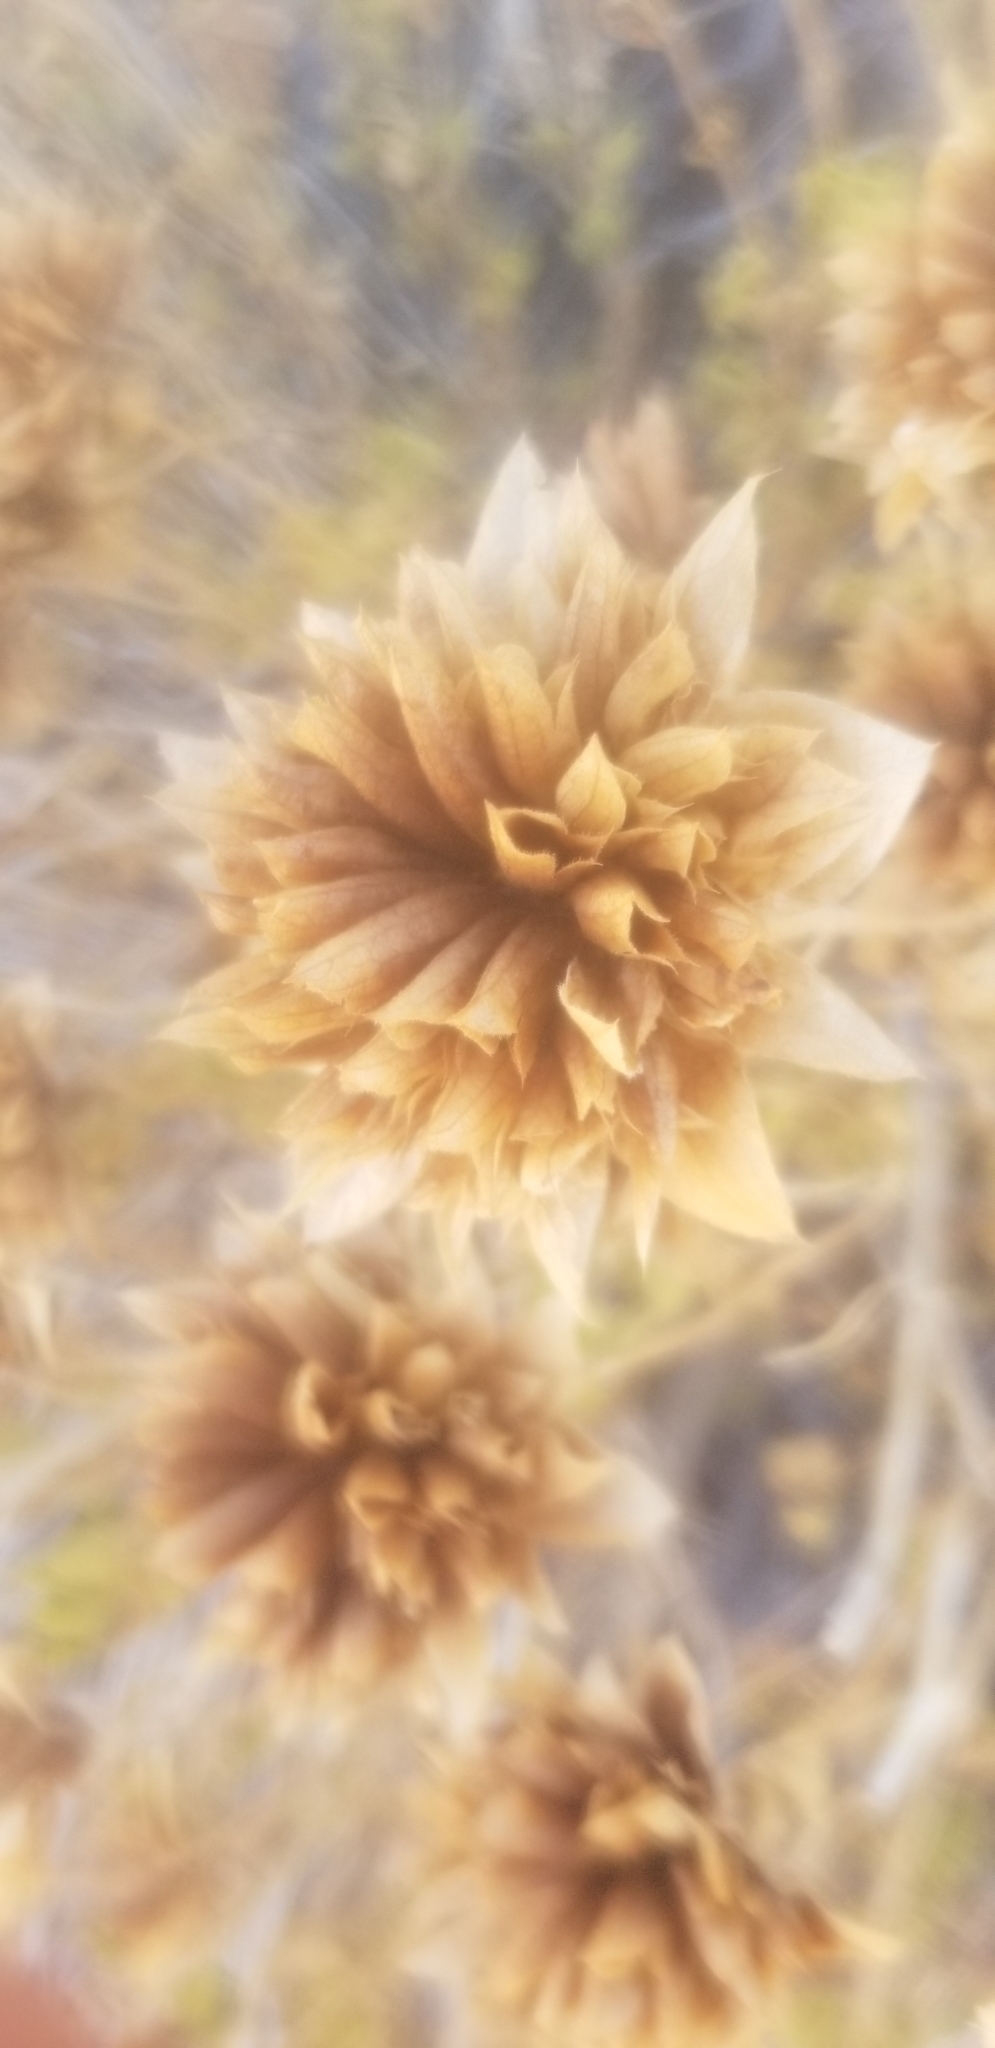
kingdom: Plantae
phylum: Tracheophyta
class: Magnoliopsida
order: Lamiales
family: Lamiaceae
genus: Salvia
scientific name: Salvia mohavensis
